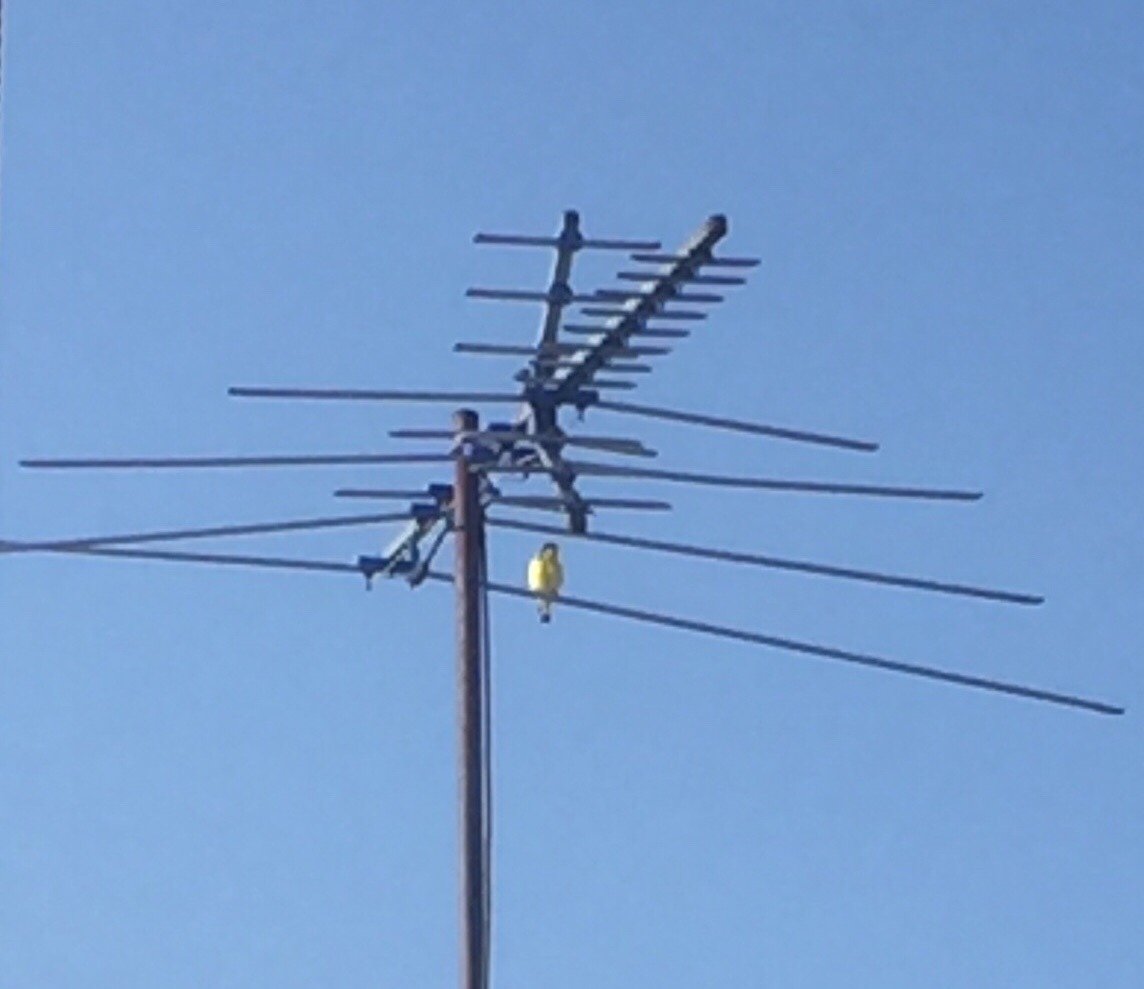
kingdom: Animalia
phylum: Chordata
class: Aves
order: Passeriformes
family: Fringillidae
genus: Spinus
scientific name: Spinus psaltria
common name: Lesser goldfinch
